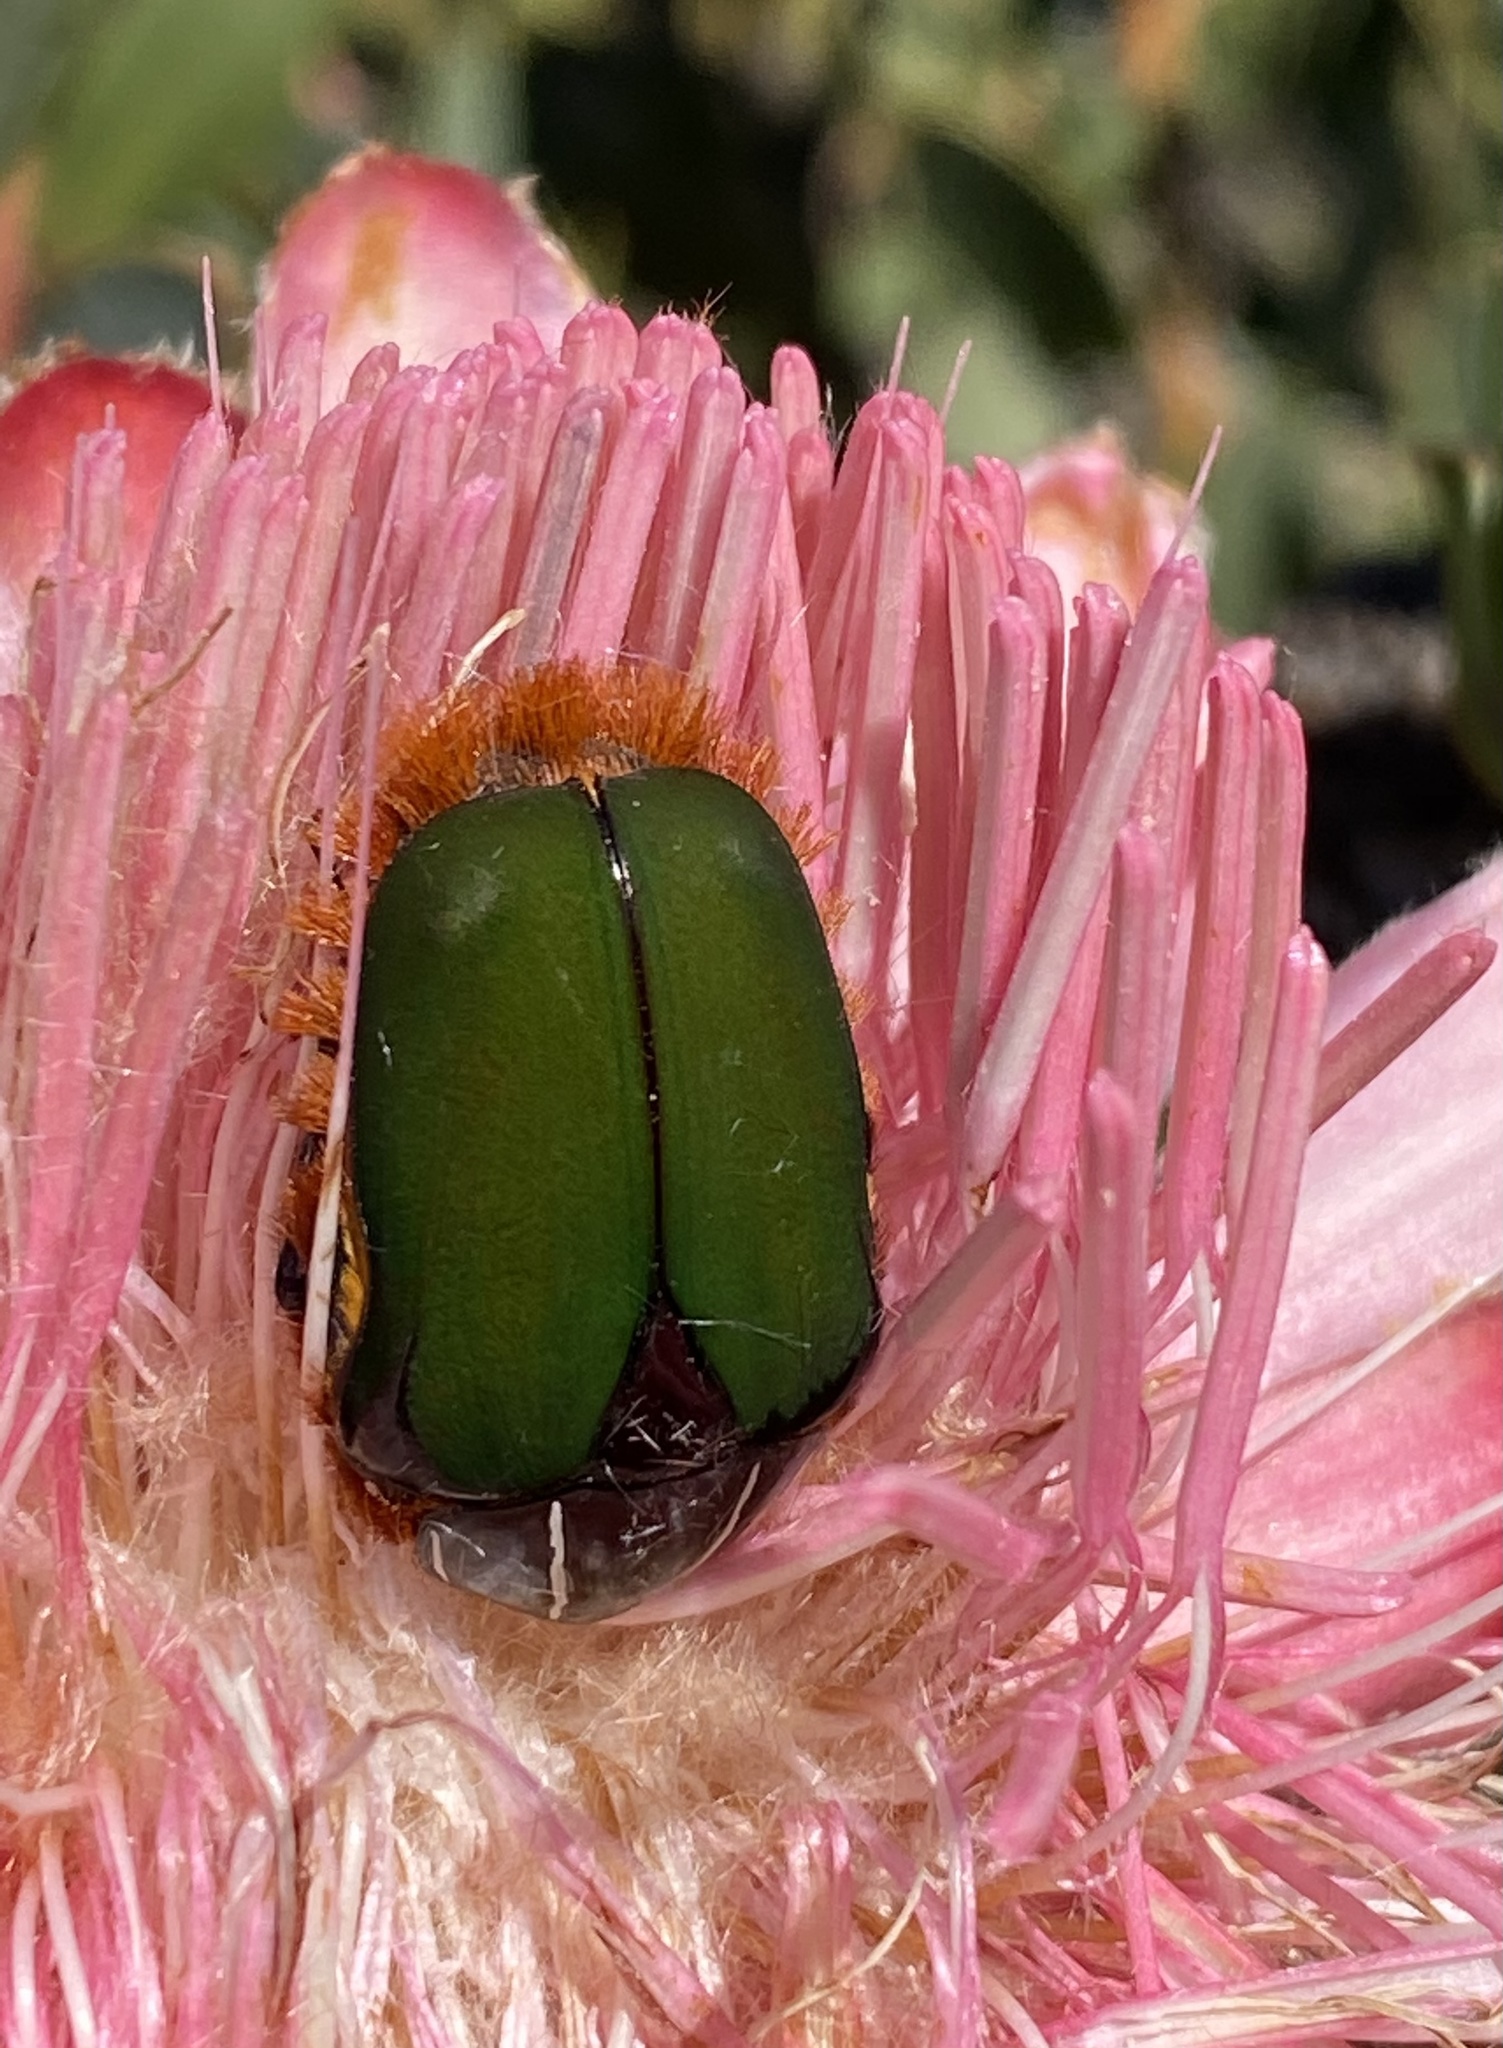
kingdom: Animalia
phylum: Arthropoda
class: Insecta
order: Coleoptera
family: Scarabaeidae
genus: Trichostetha
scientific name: Trichostetha fascicularis
